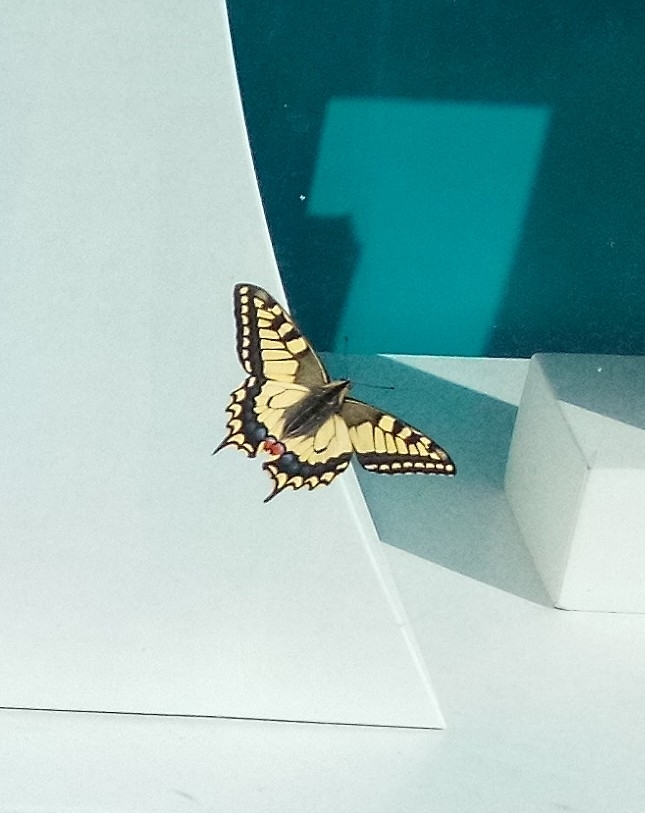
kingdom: Animalia
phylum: Arthropoda
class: Insecta
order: Lepidoptera
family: Papilionidae
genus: Papilio
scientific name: Papilio machaon
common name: Swallowtail
